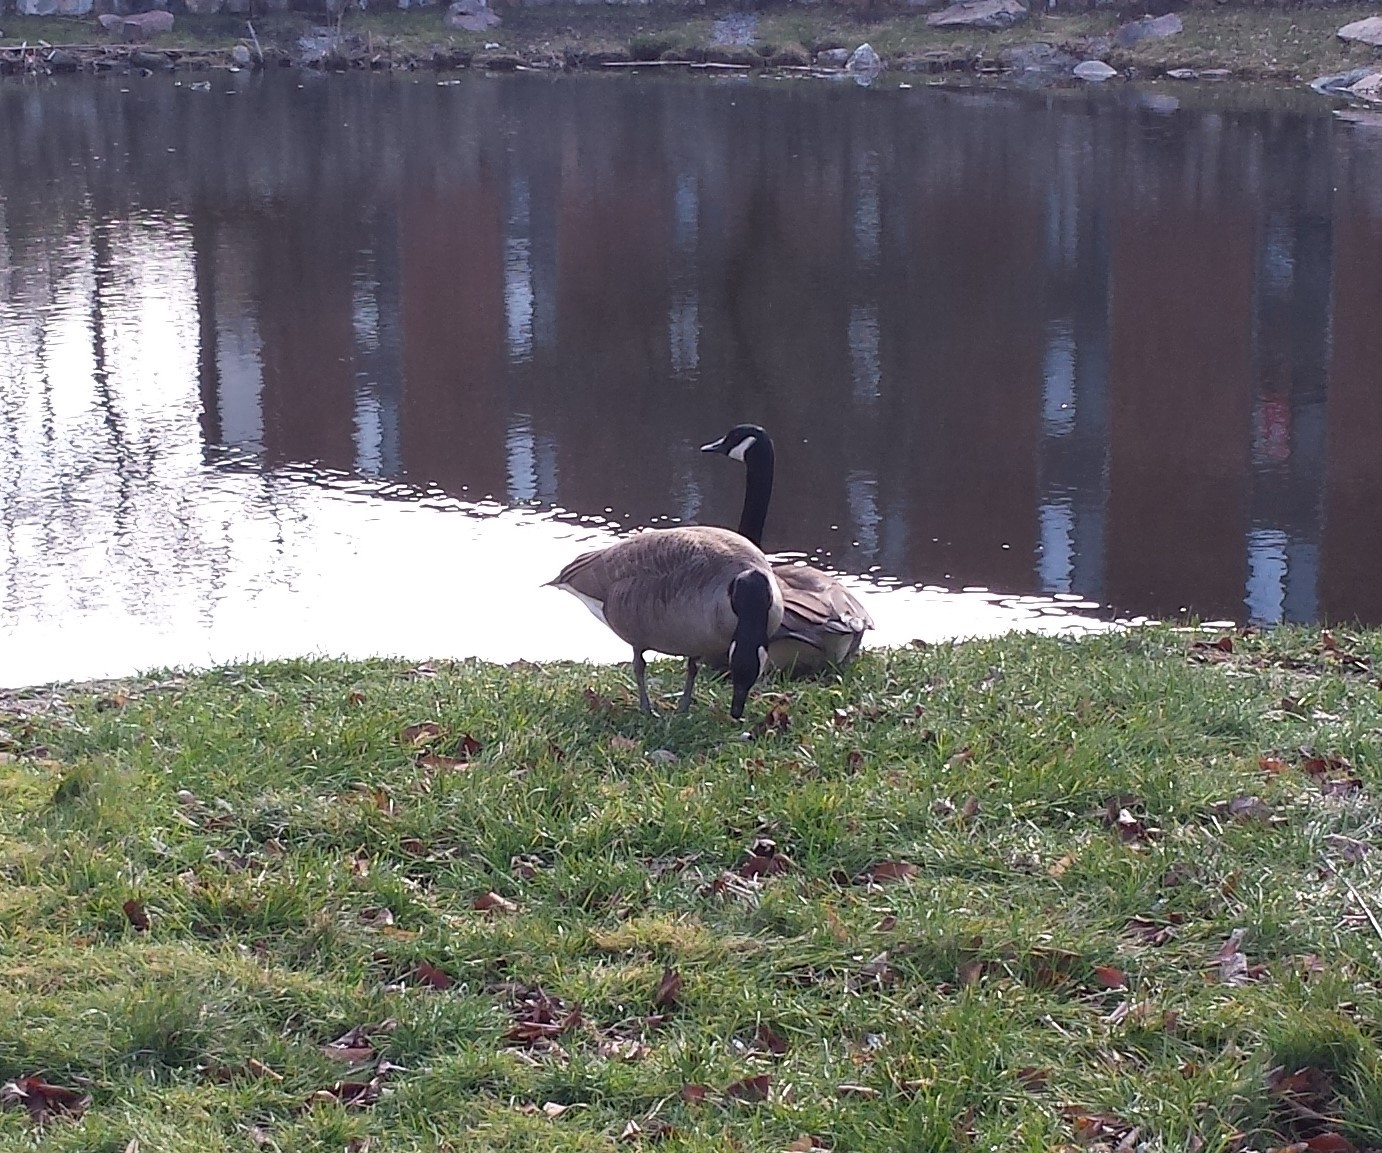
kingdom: Animalia
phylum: Chordata
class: Aves
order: Anseriformes
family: Anatidae
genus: Branta
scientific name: Branta canadensis
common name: Canada goose
